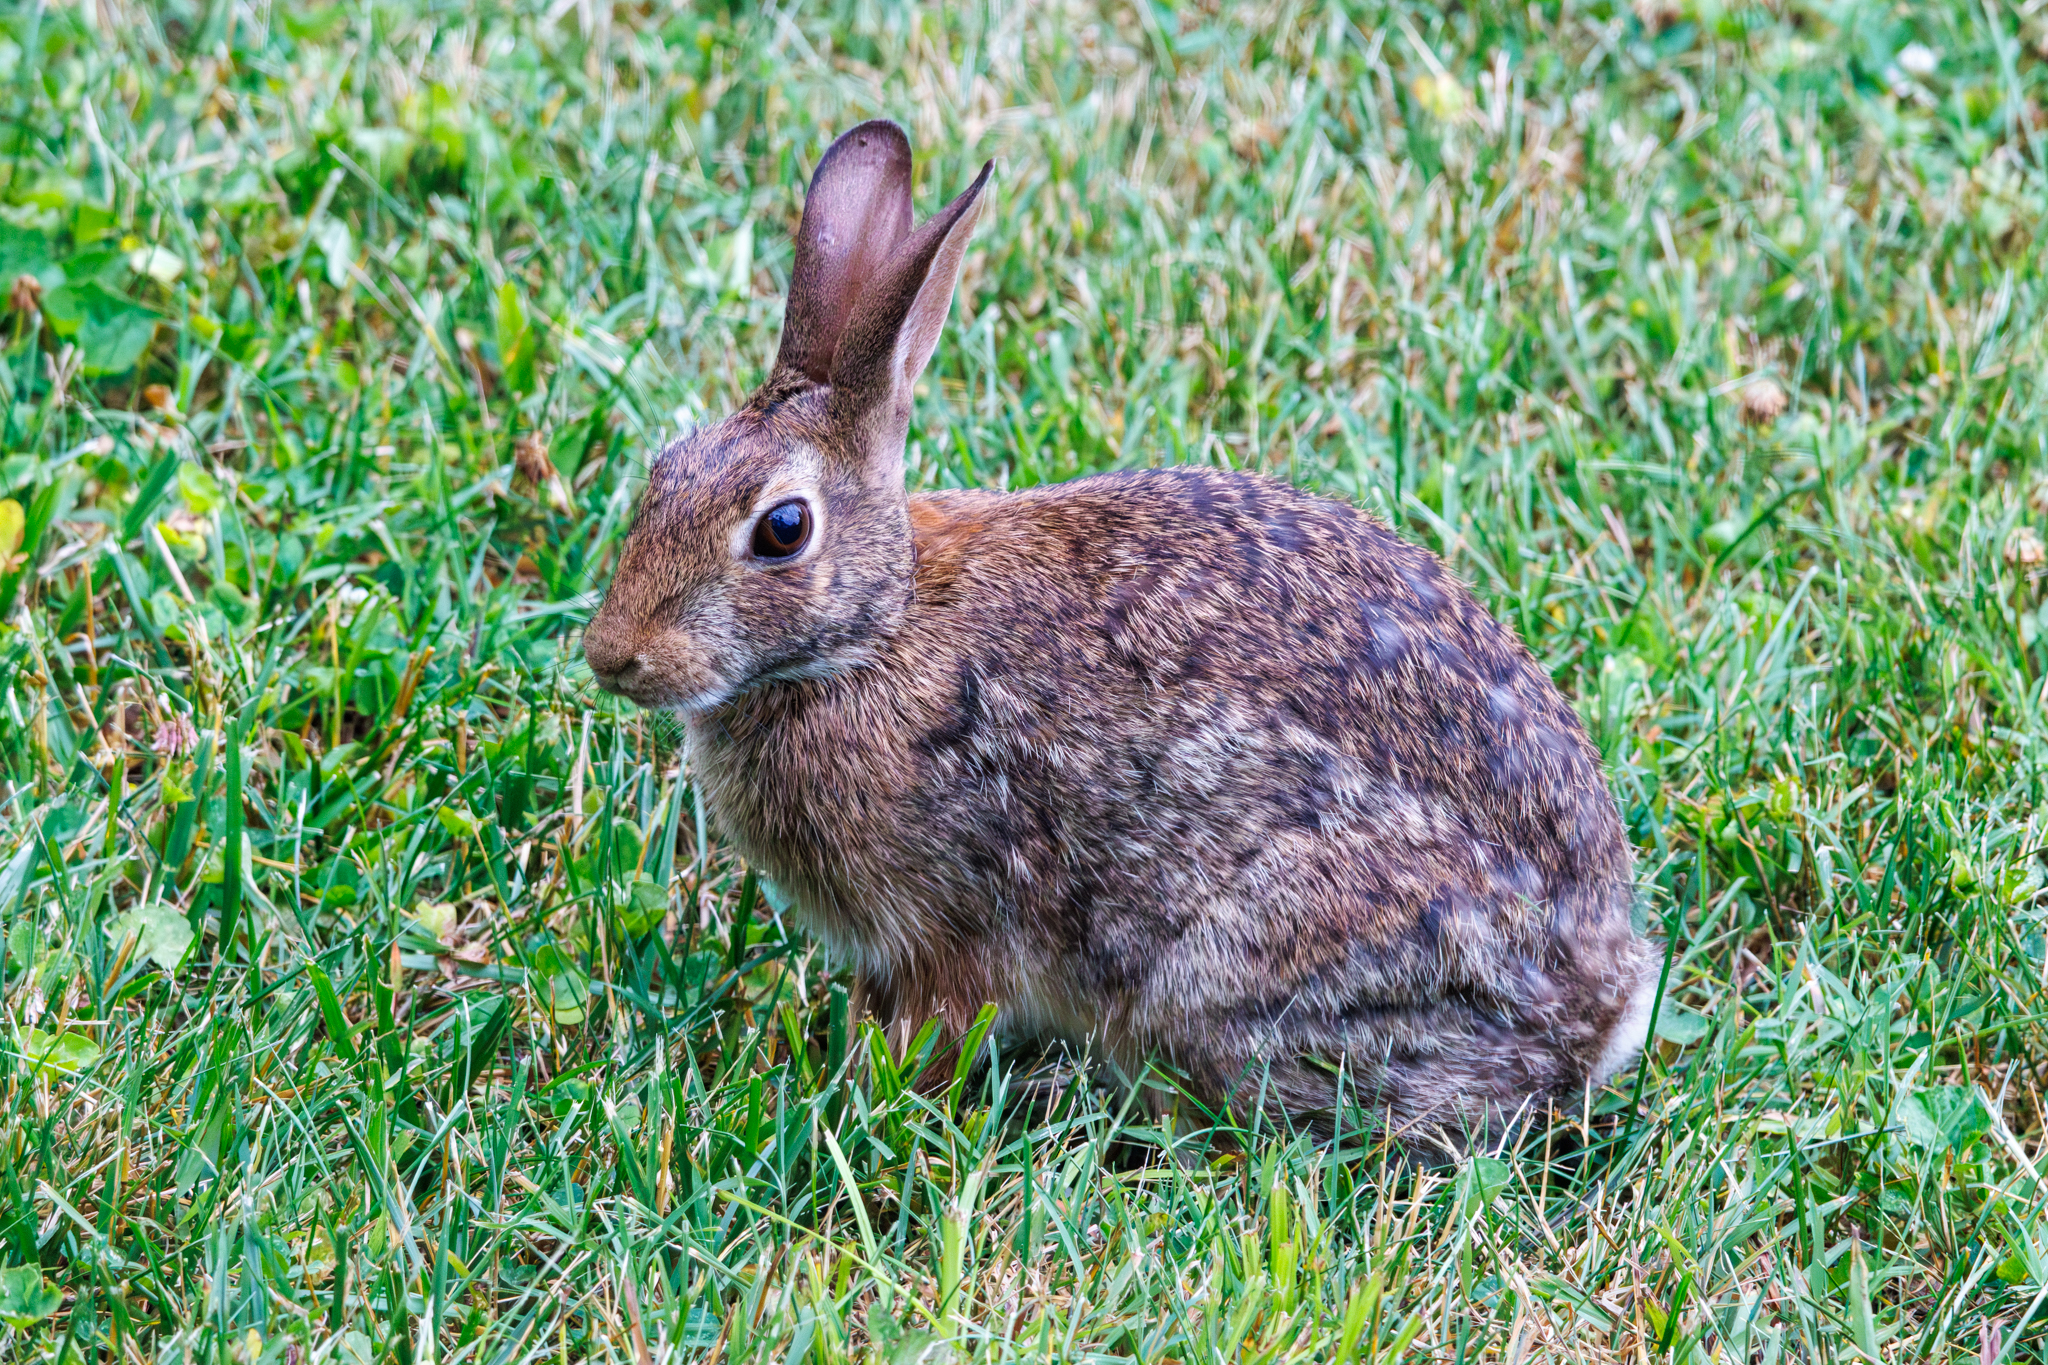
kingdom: Animalia
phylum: Chordata
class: Mammalia
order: Lagomorpha
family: Leporidae
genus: Sylvilagus
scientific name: Sylvilagus floridanus
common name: Eastern cottontail
